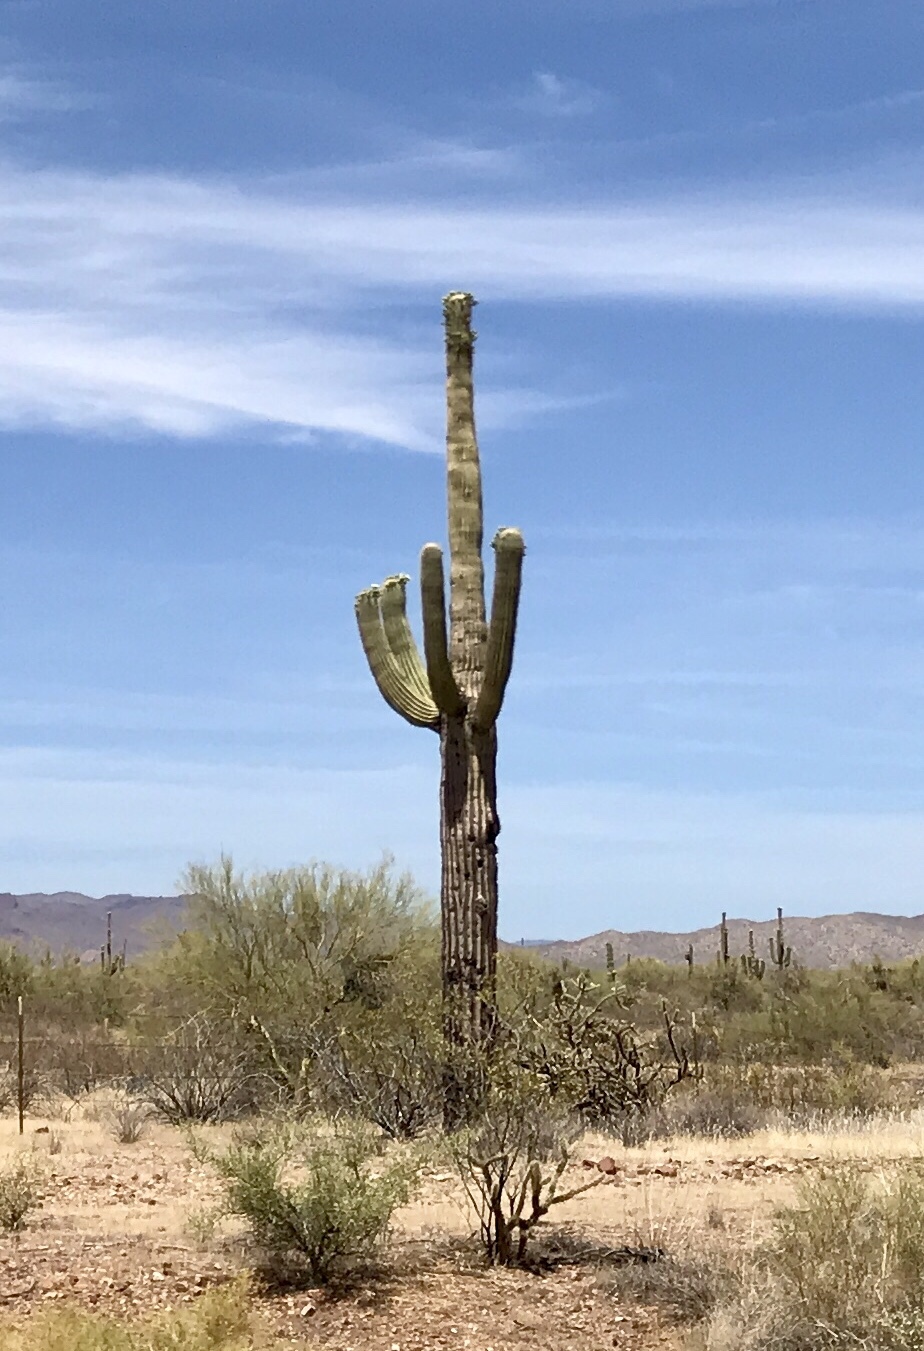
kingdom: Plantae
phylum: Tracheophyta
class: Magnoliopsida
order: Caryophyllales
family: Cactaceae
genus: Carnegiea
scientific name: Carnegiea gigantea
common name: Saguaro
